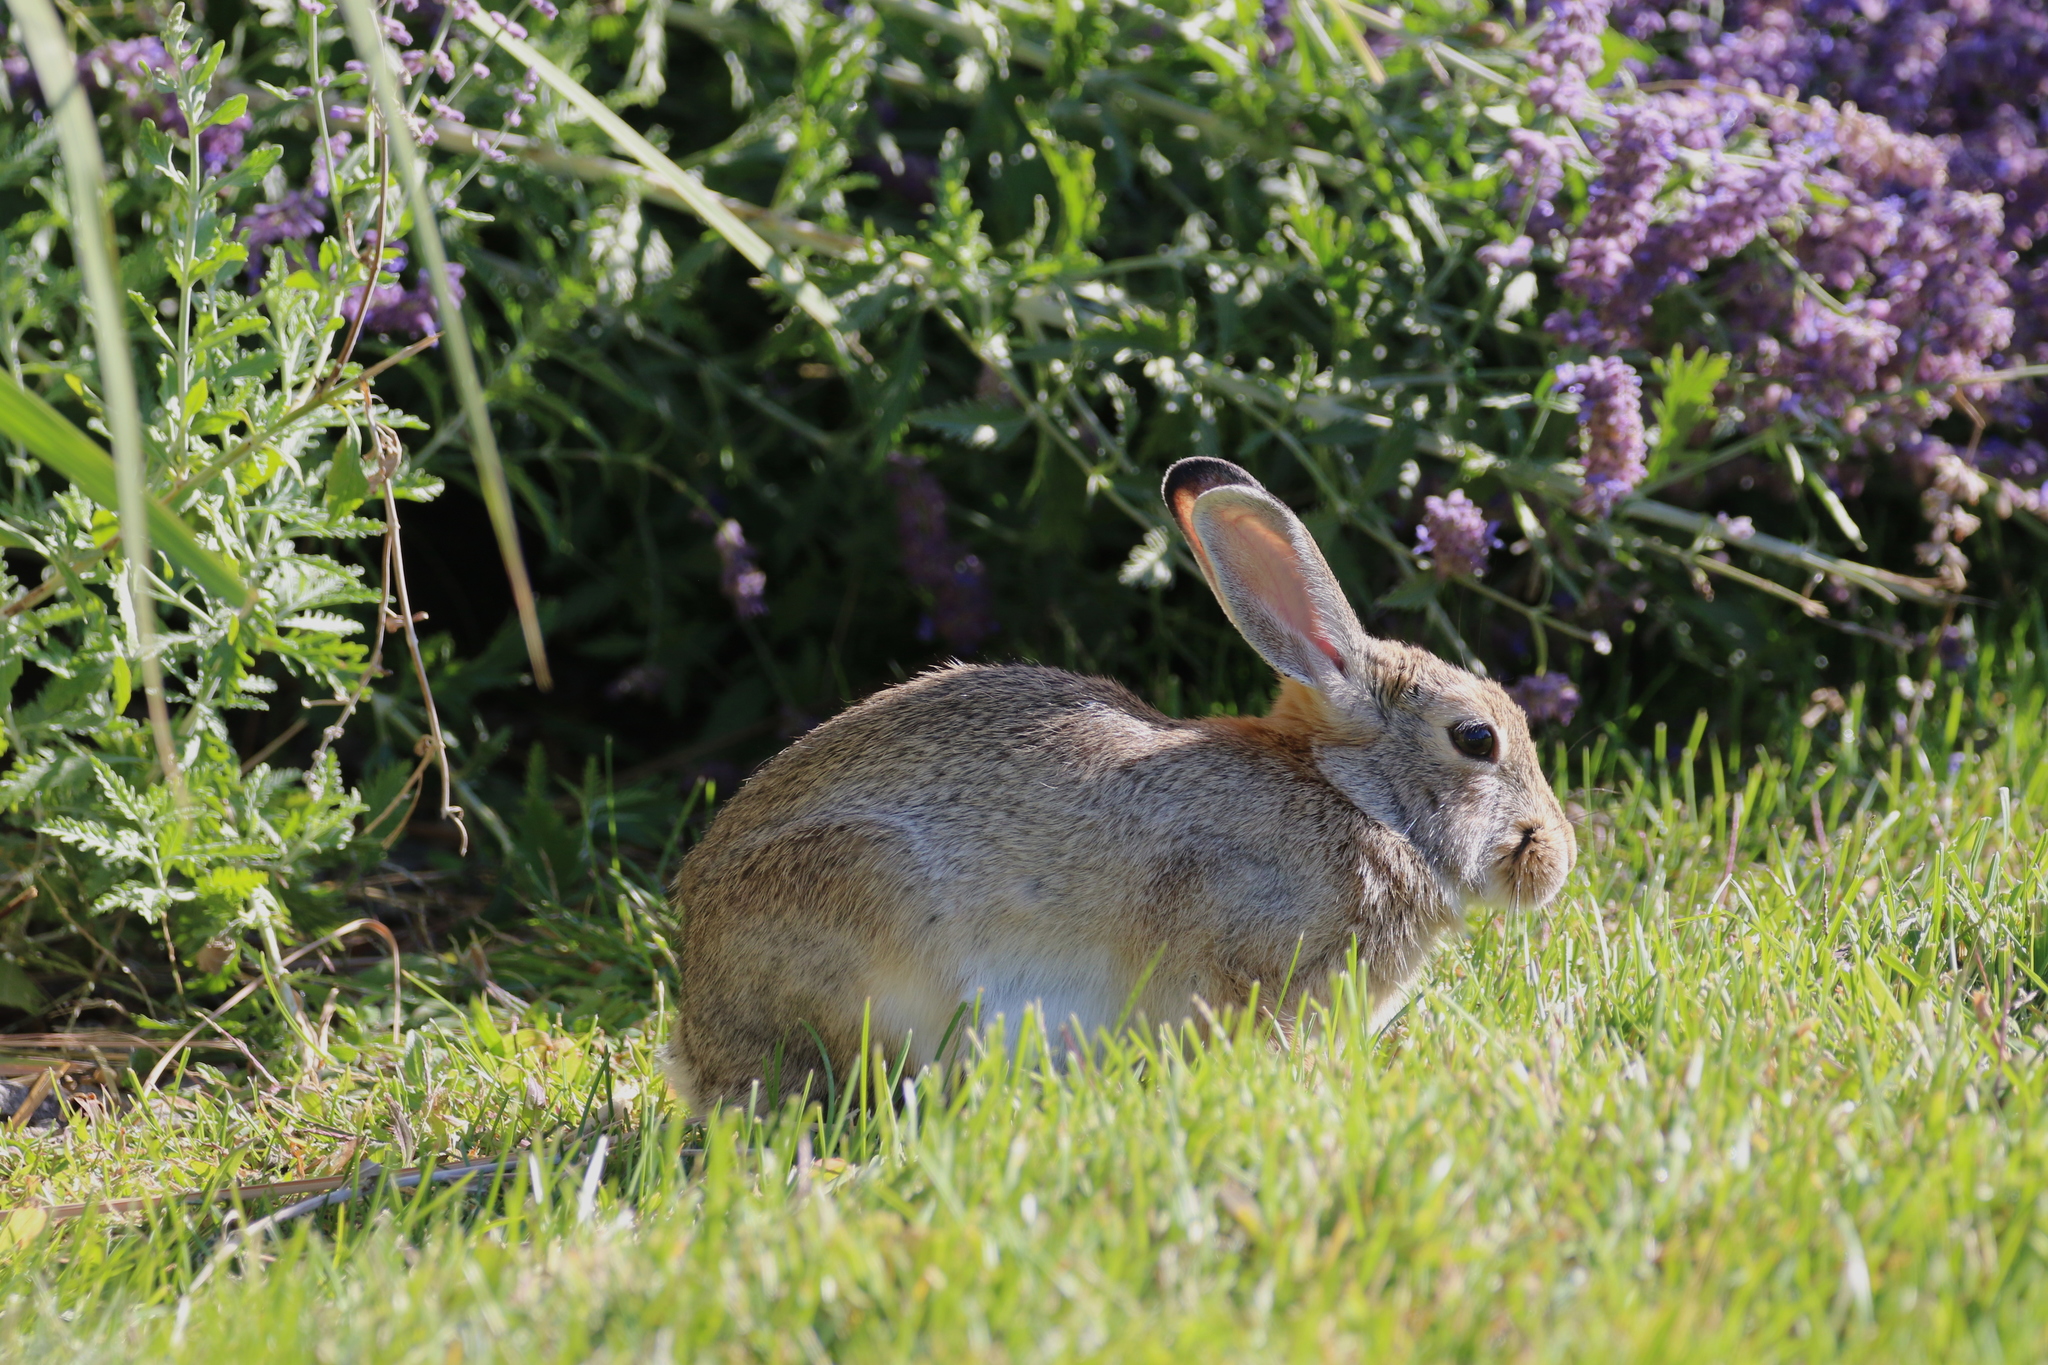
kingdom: Animalia
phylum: Chordata
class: Mammalia
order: Lagomorpha
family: Leporidae
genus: Sylvilagus
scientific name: Sylvilagus audubonii
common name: Desert cottontail
